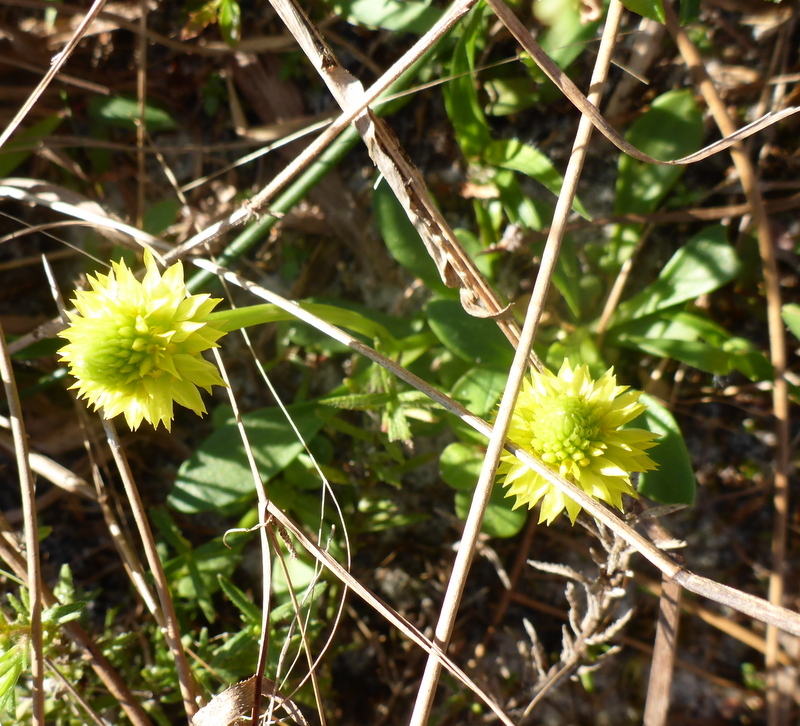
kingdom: Plantae
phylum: Tracheophyta
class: Magnoliopsida
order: Fabales
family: Polygalaceae
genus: Polygala
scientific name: Polygala nana
